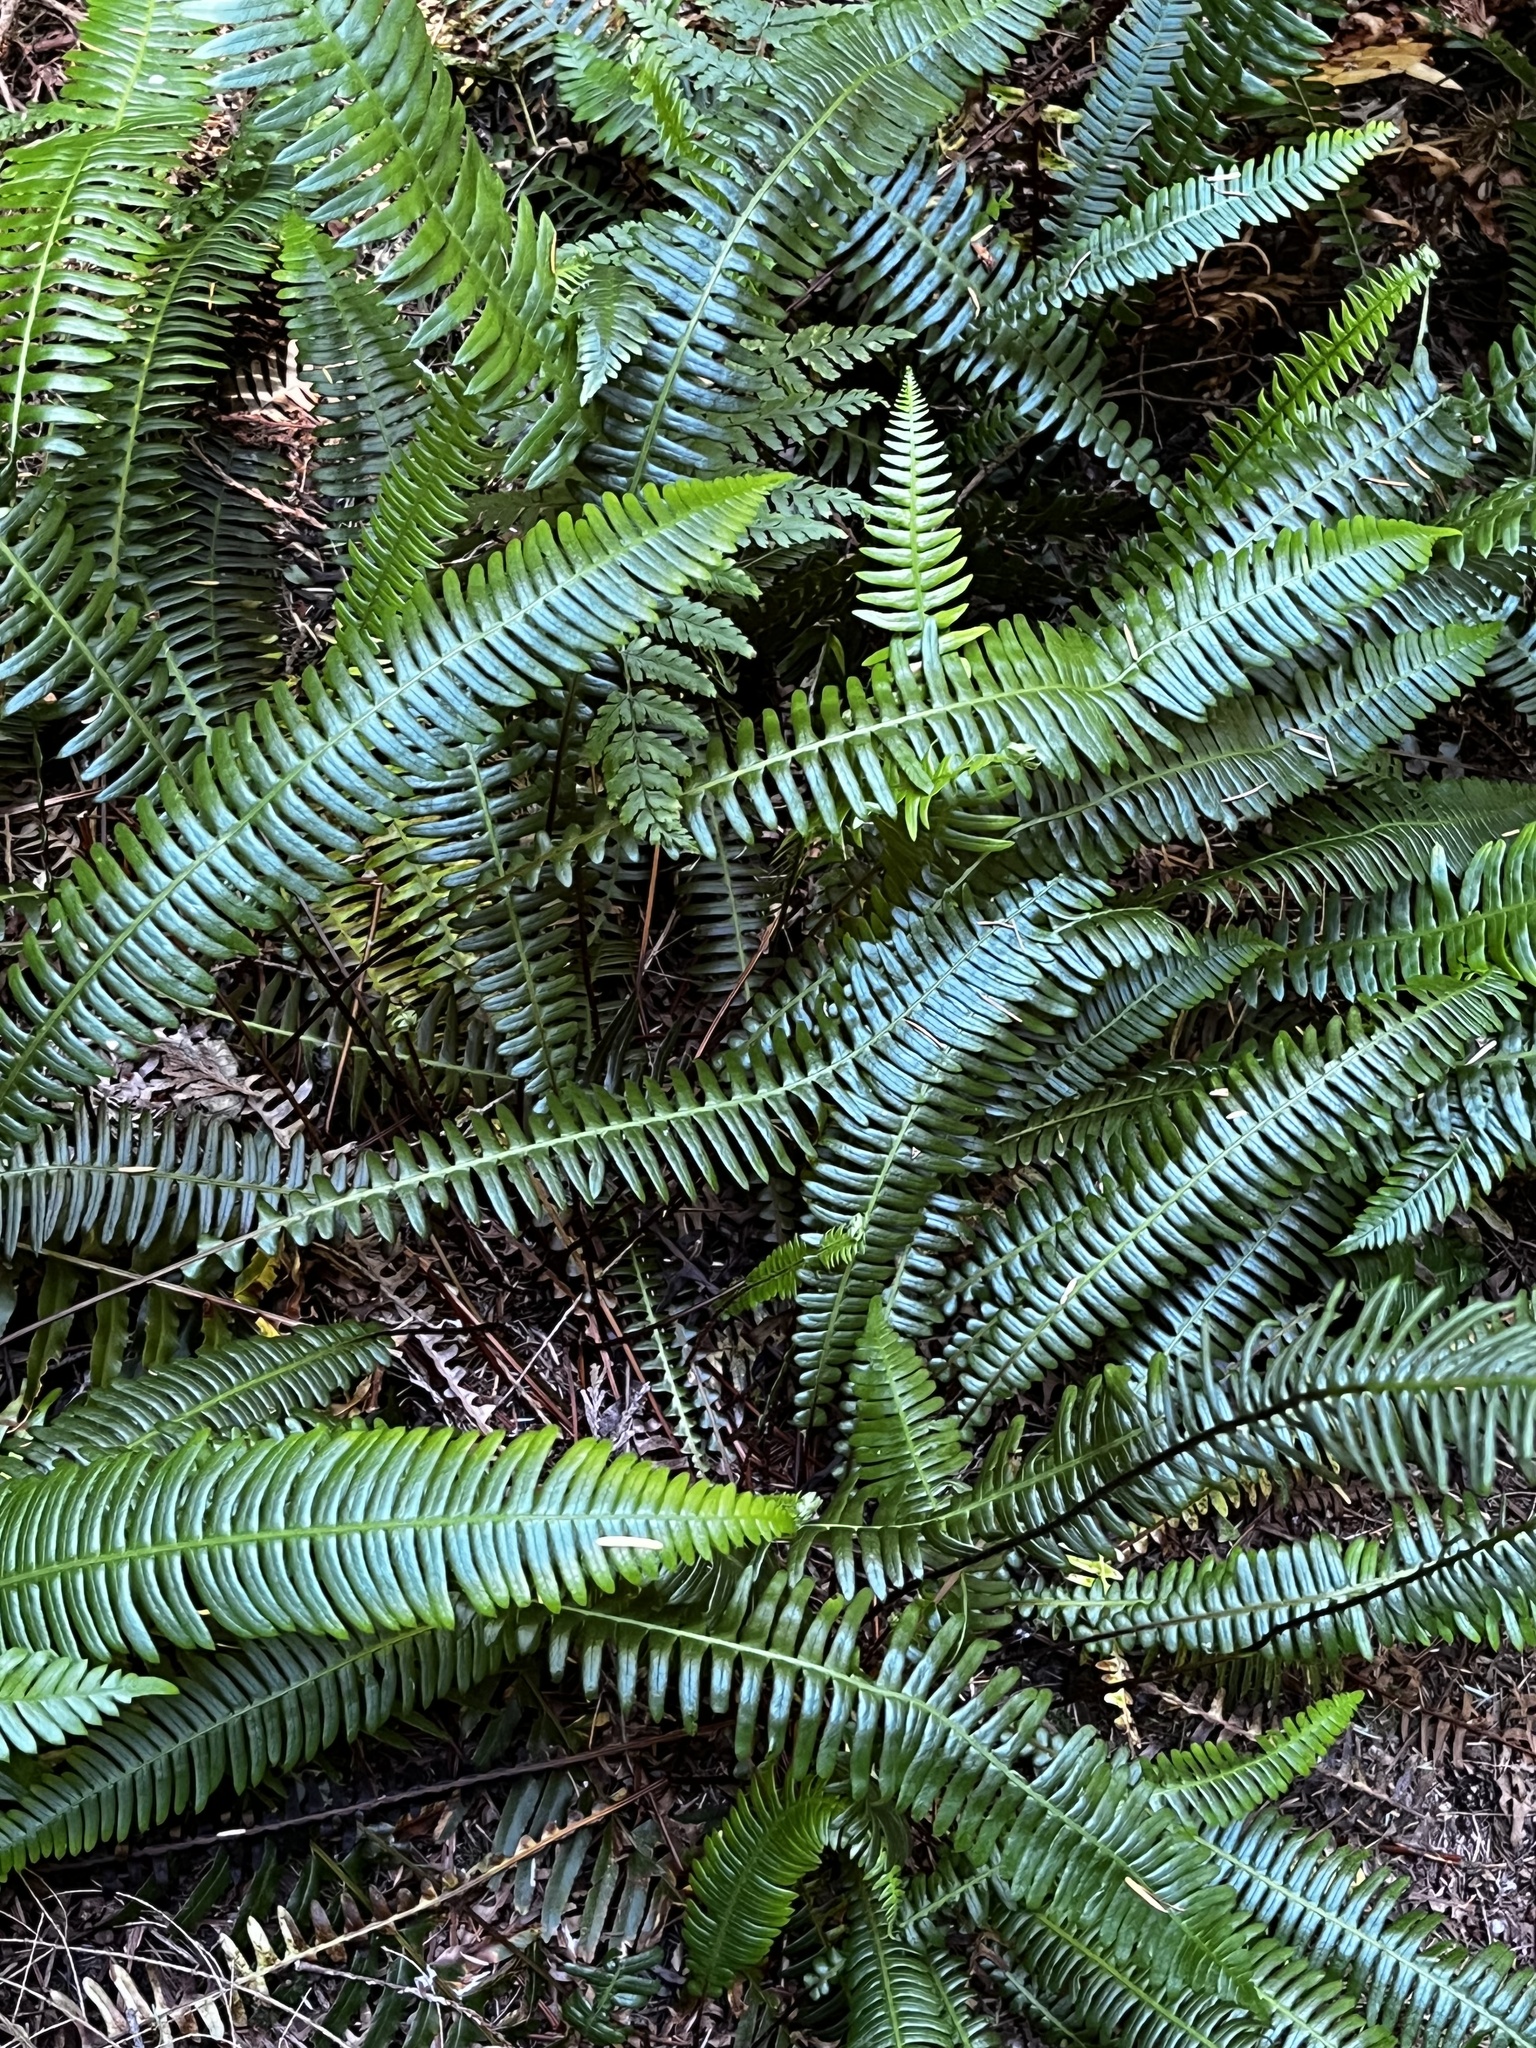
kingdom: Plantae
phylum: Tracheophyta
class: Polypodiopsida
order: Polypodiales
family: Blechnaceae
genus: Struthiopteris
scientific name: Struthiopteris spicant
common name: Deer fern
